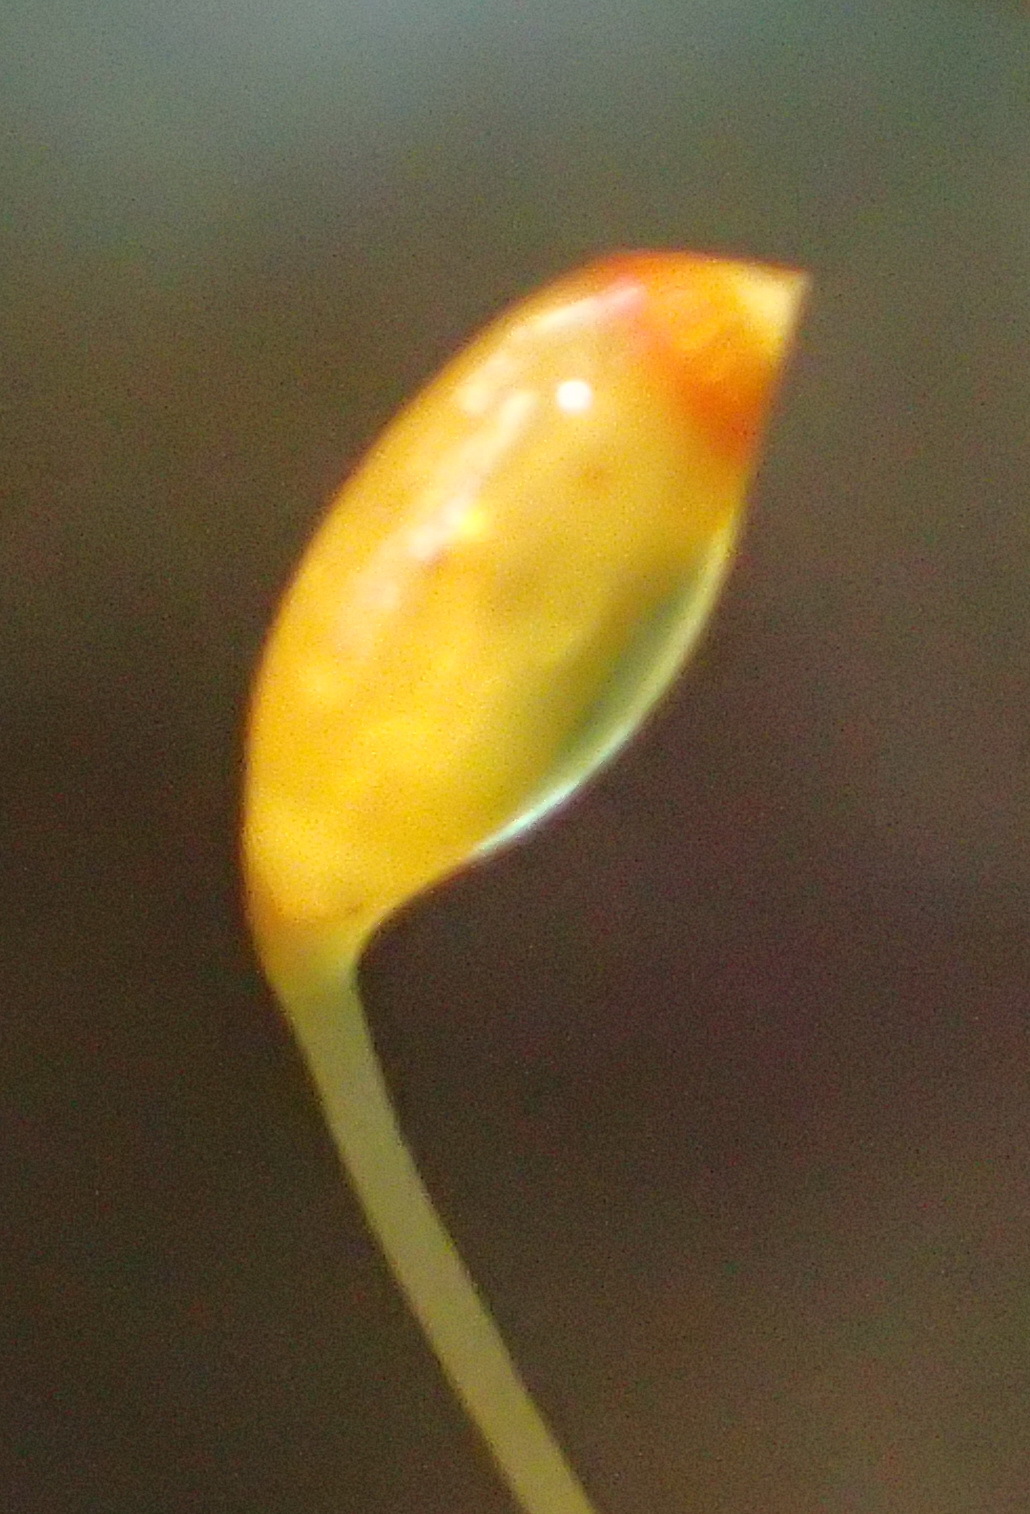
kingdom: Plantae
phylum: Bryophyta
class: Bryopsida
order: Rhizogoniales
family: Calomniaceae
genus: Pyrrhobryum
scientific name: Pyrrhobryum spiniforme
